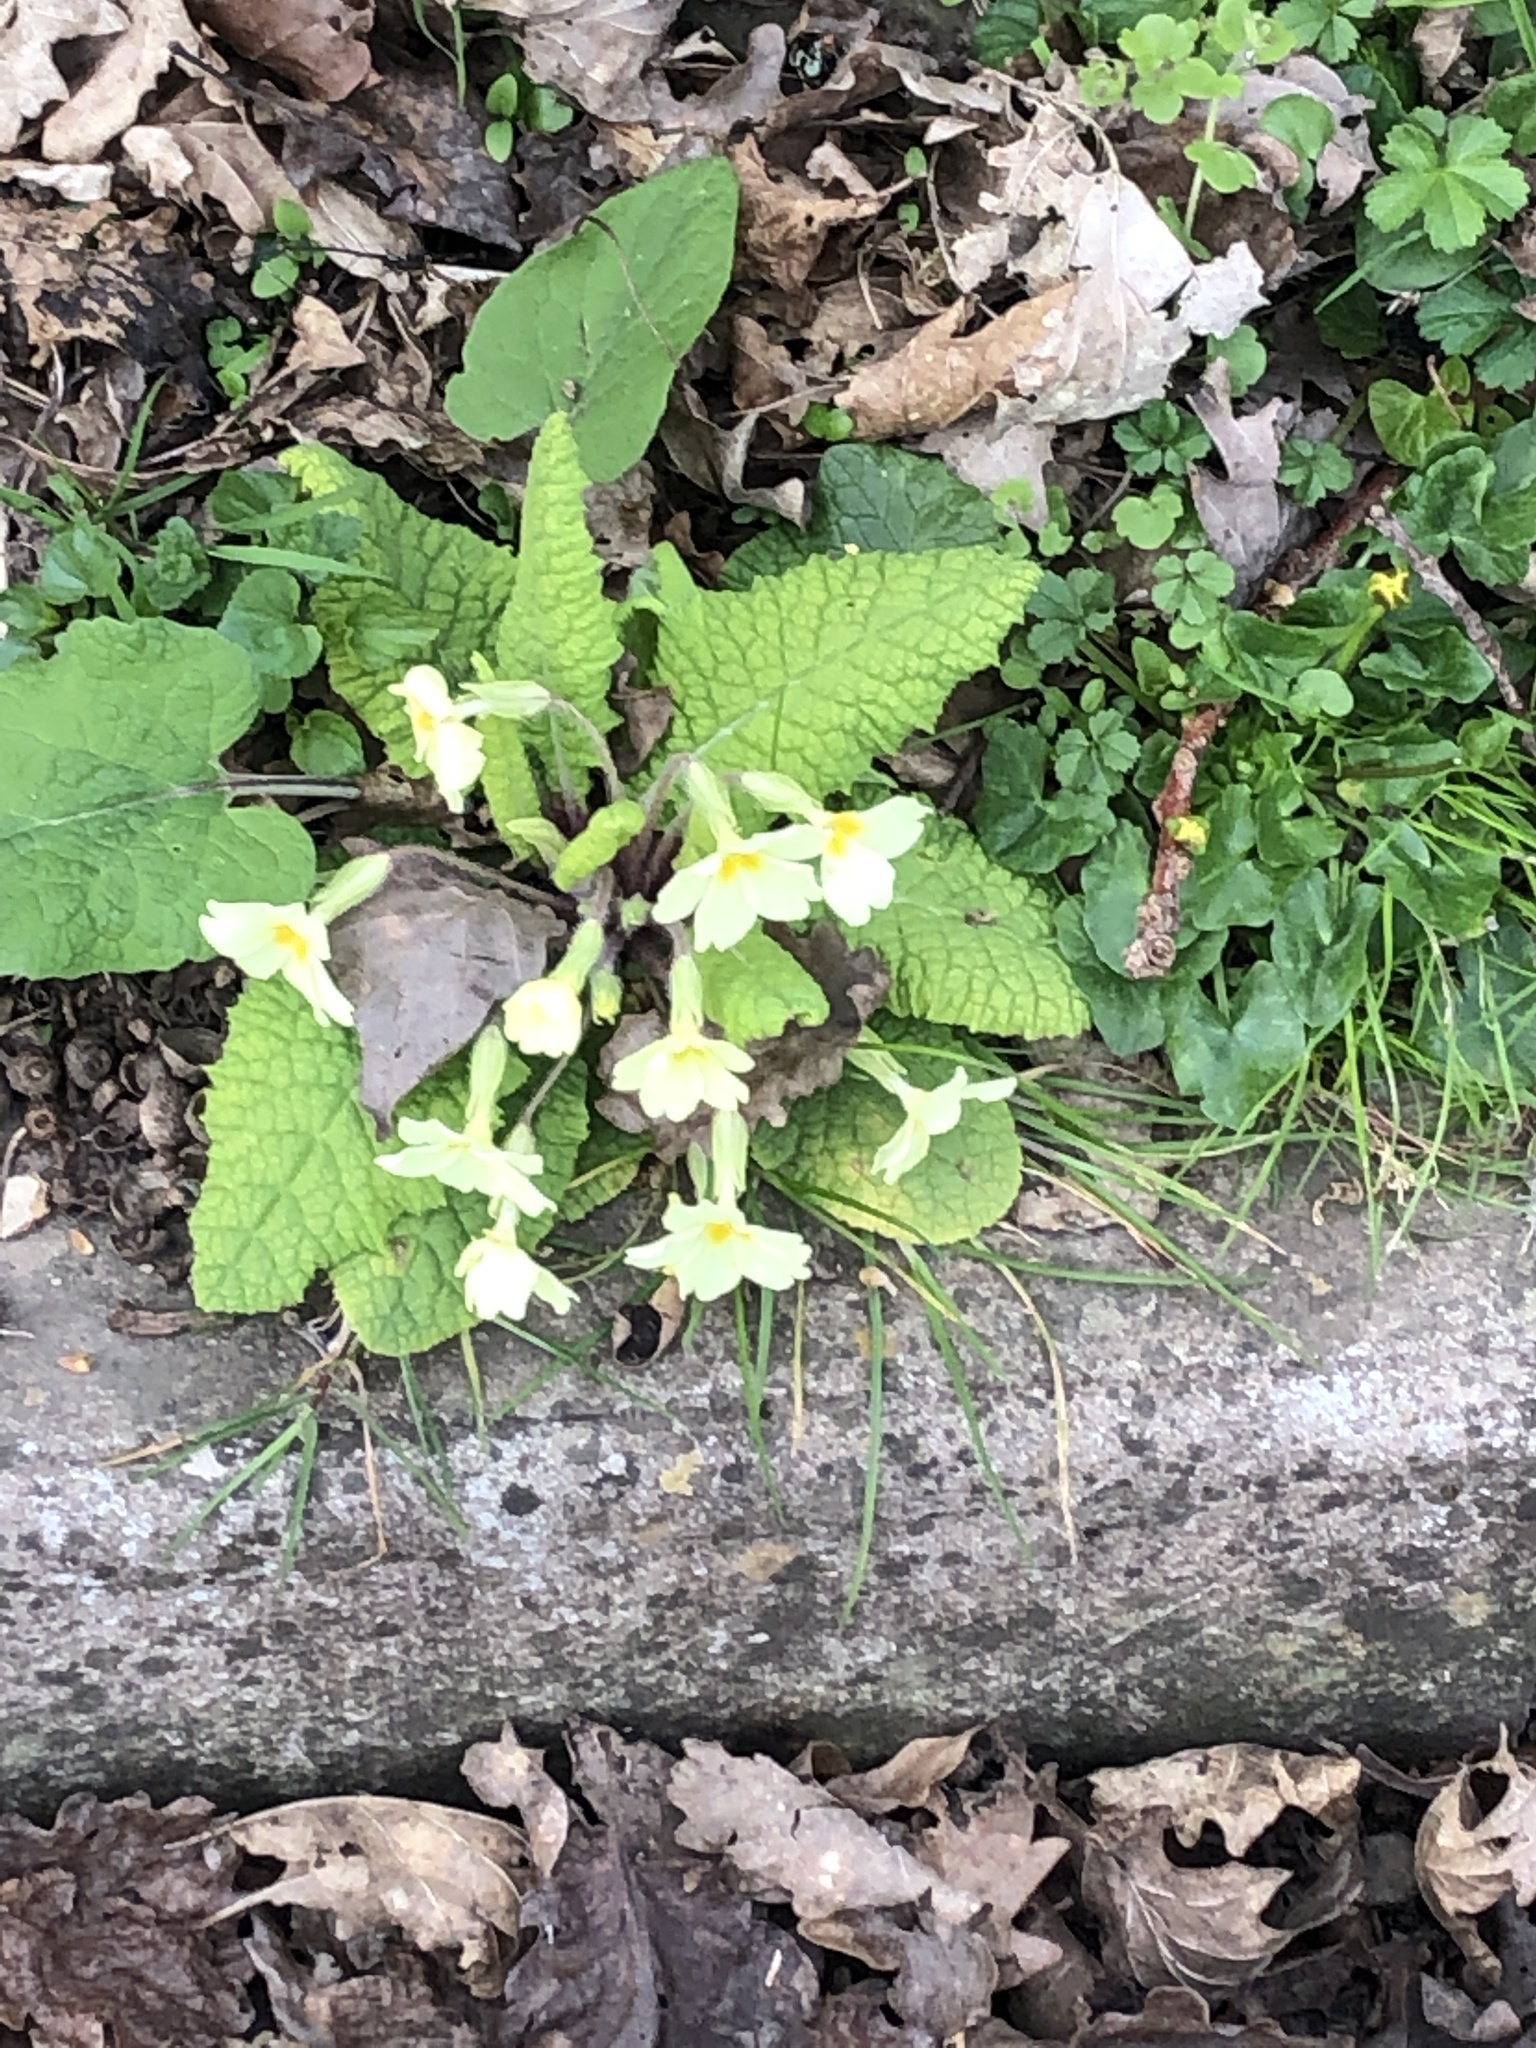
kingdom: Plantae
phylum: Tracheophyta
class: Magnoliopsida
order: Ericales
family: Primulaceae
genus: Primula
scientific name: Primula vulgaris
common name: Primrose
